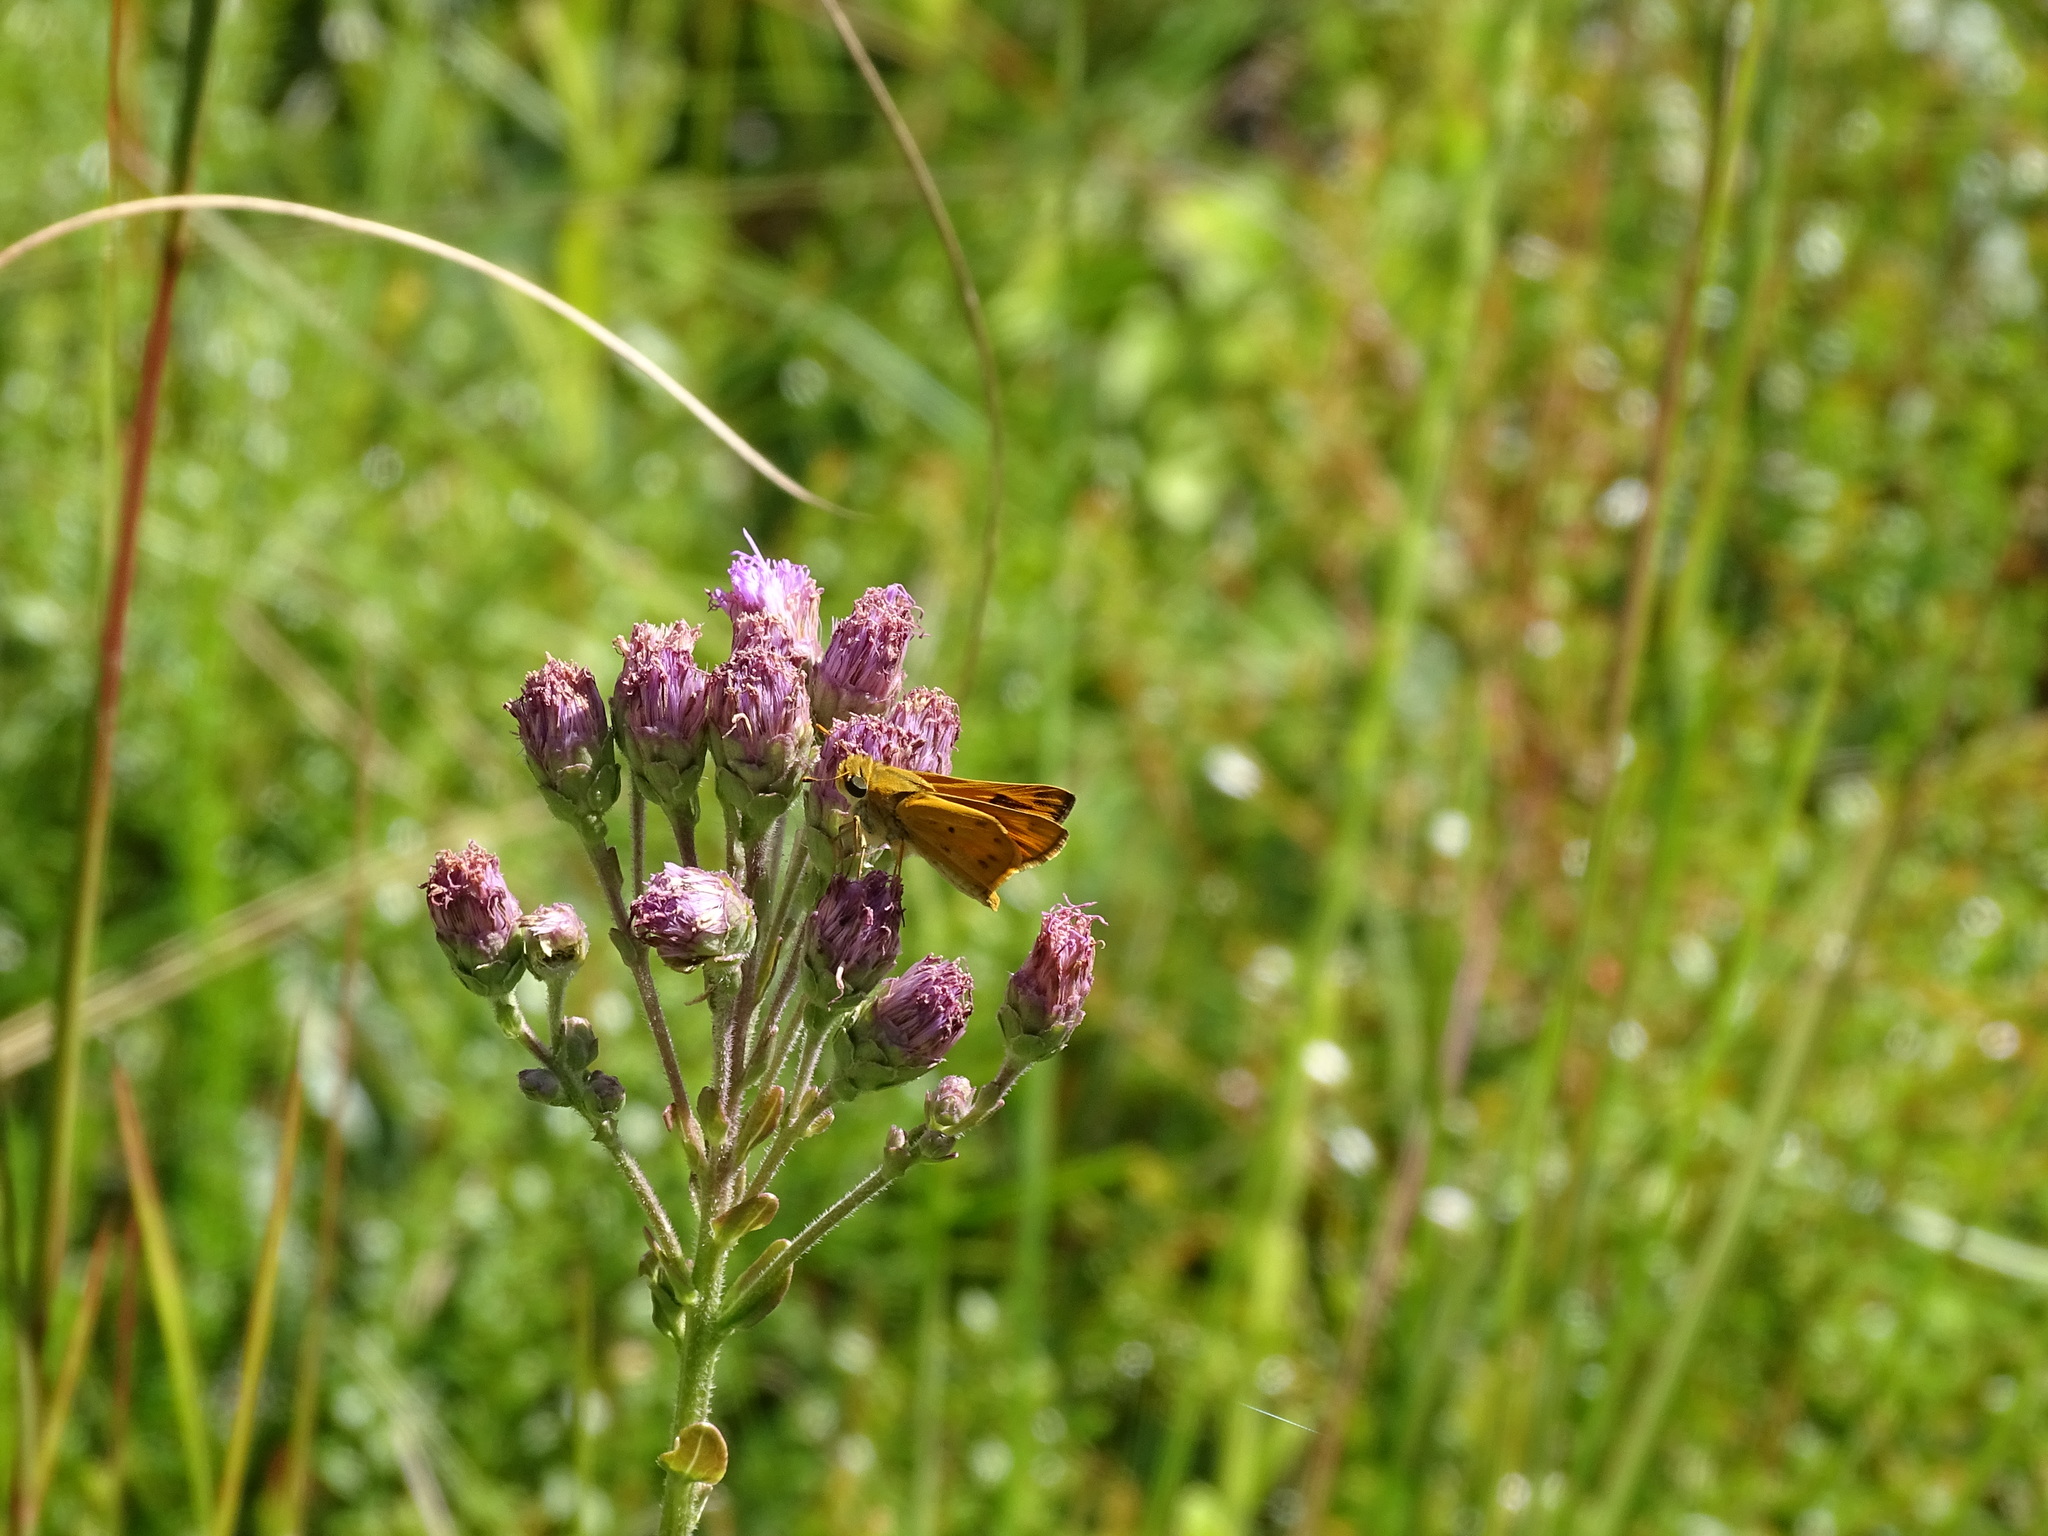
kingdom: Animalia
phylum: Arthropoda
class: Insecta
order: Lepidoptera
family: Hesperiidae
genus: Hylephila
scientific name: Hylephila phyleus
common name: Fiery skipper
